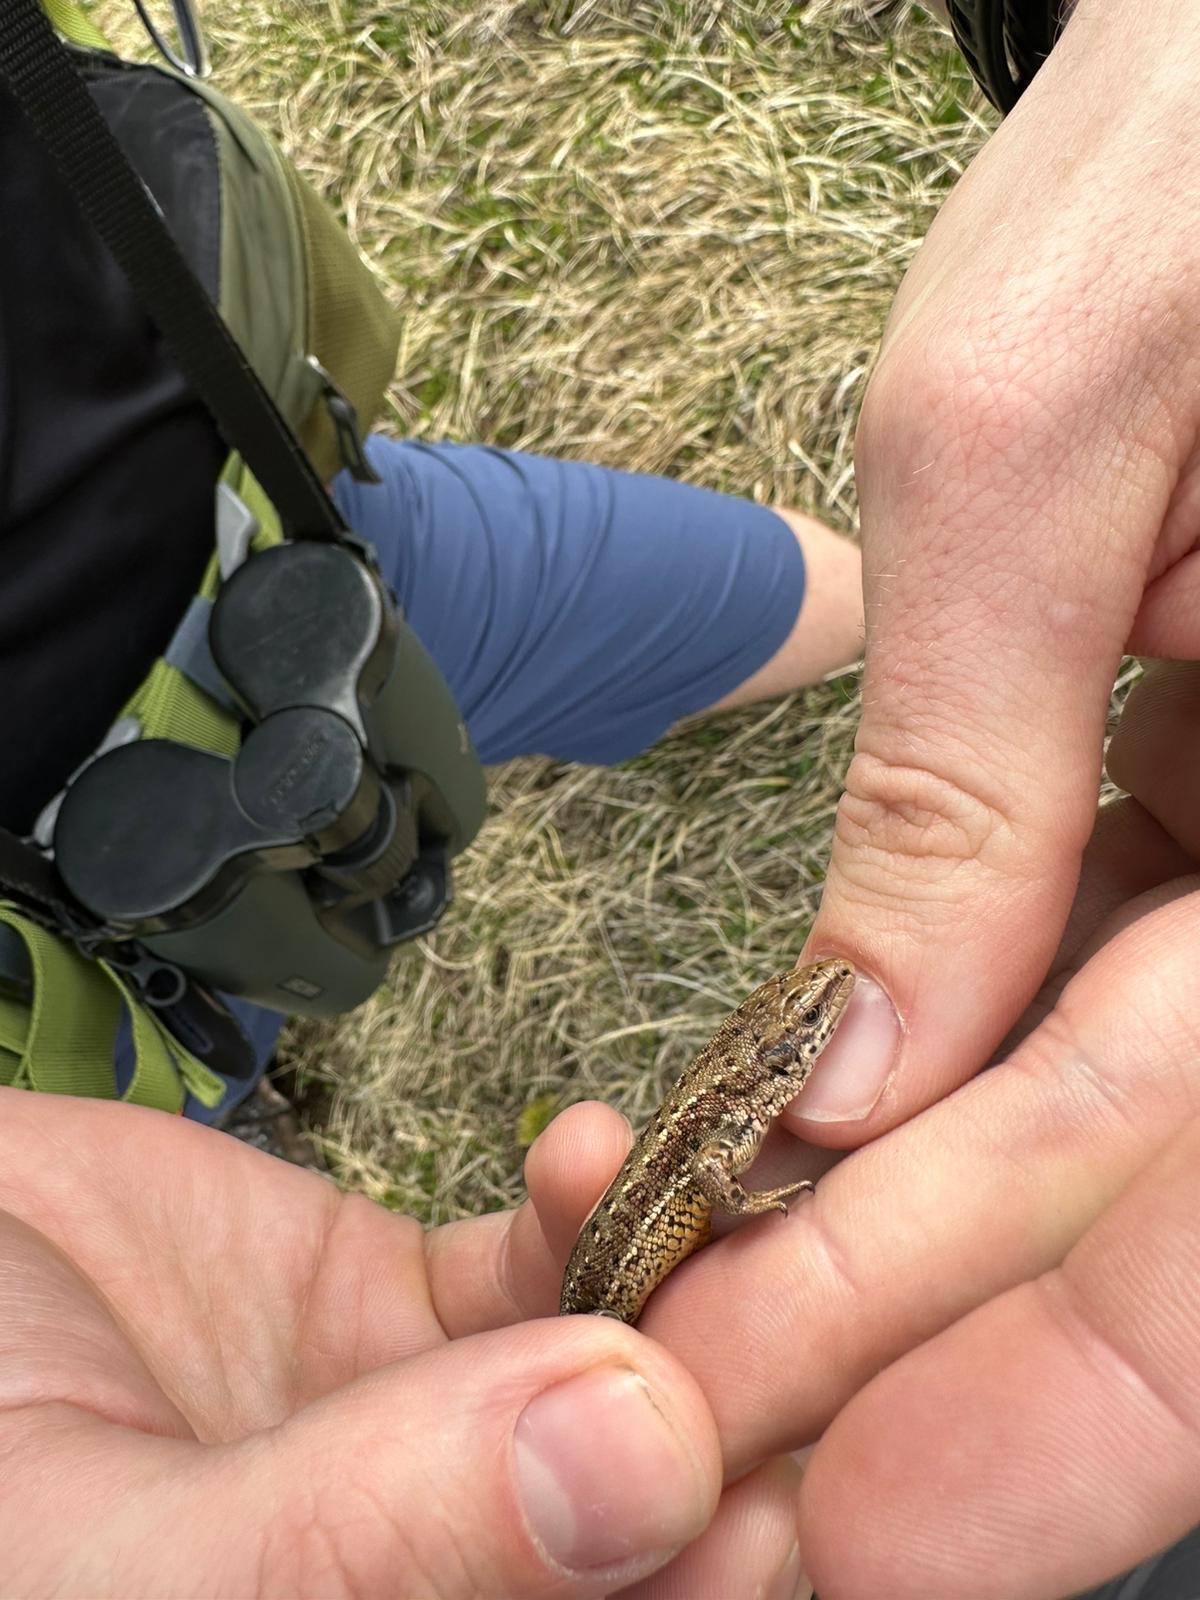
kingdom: Animalia
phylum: Chordata
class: Squamata
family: Lacertidae
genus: Zootoca
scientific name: Zootoca vivipara
